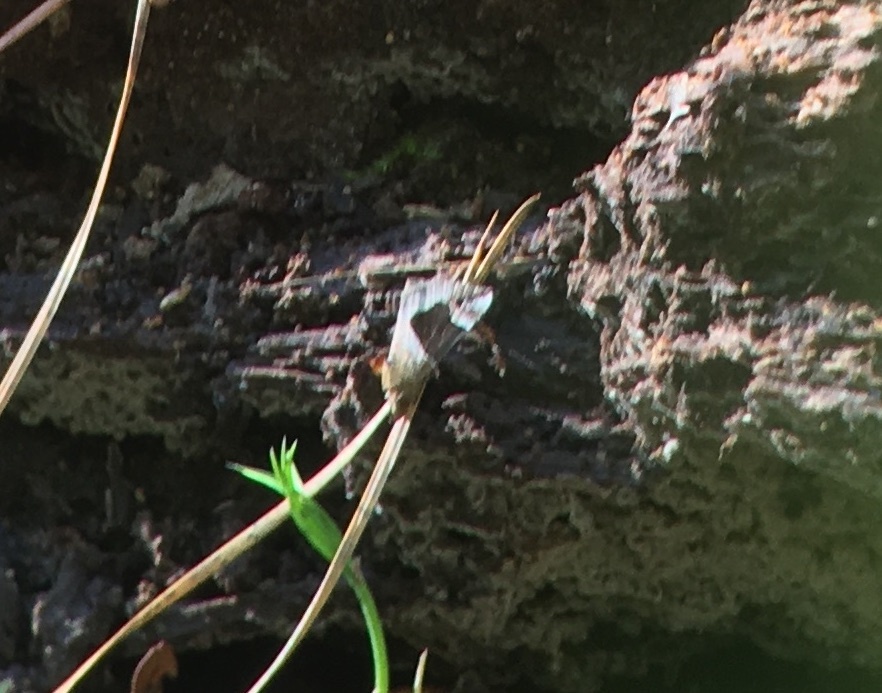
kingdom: Animalia
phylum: Arthropoda
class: Insecta
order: Lepidoptera
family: Erebidae
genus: Hypena
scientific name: Hypena manalis
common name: Flowing-line bomolocha moth
